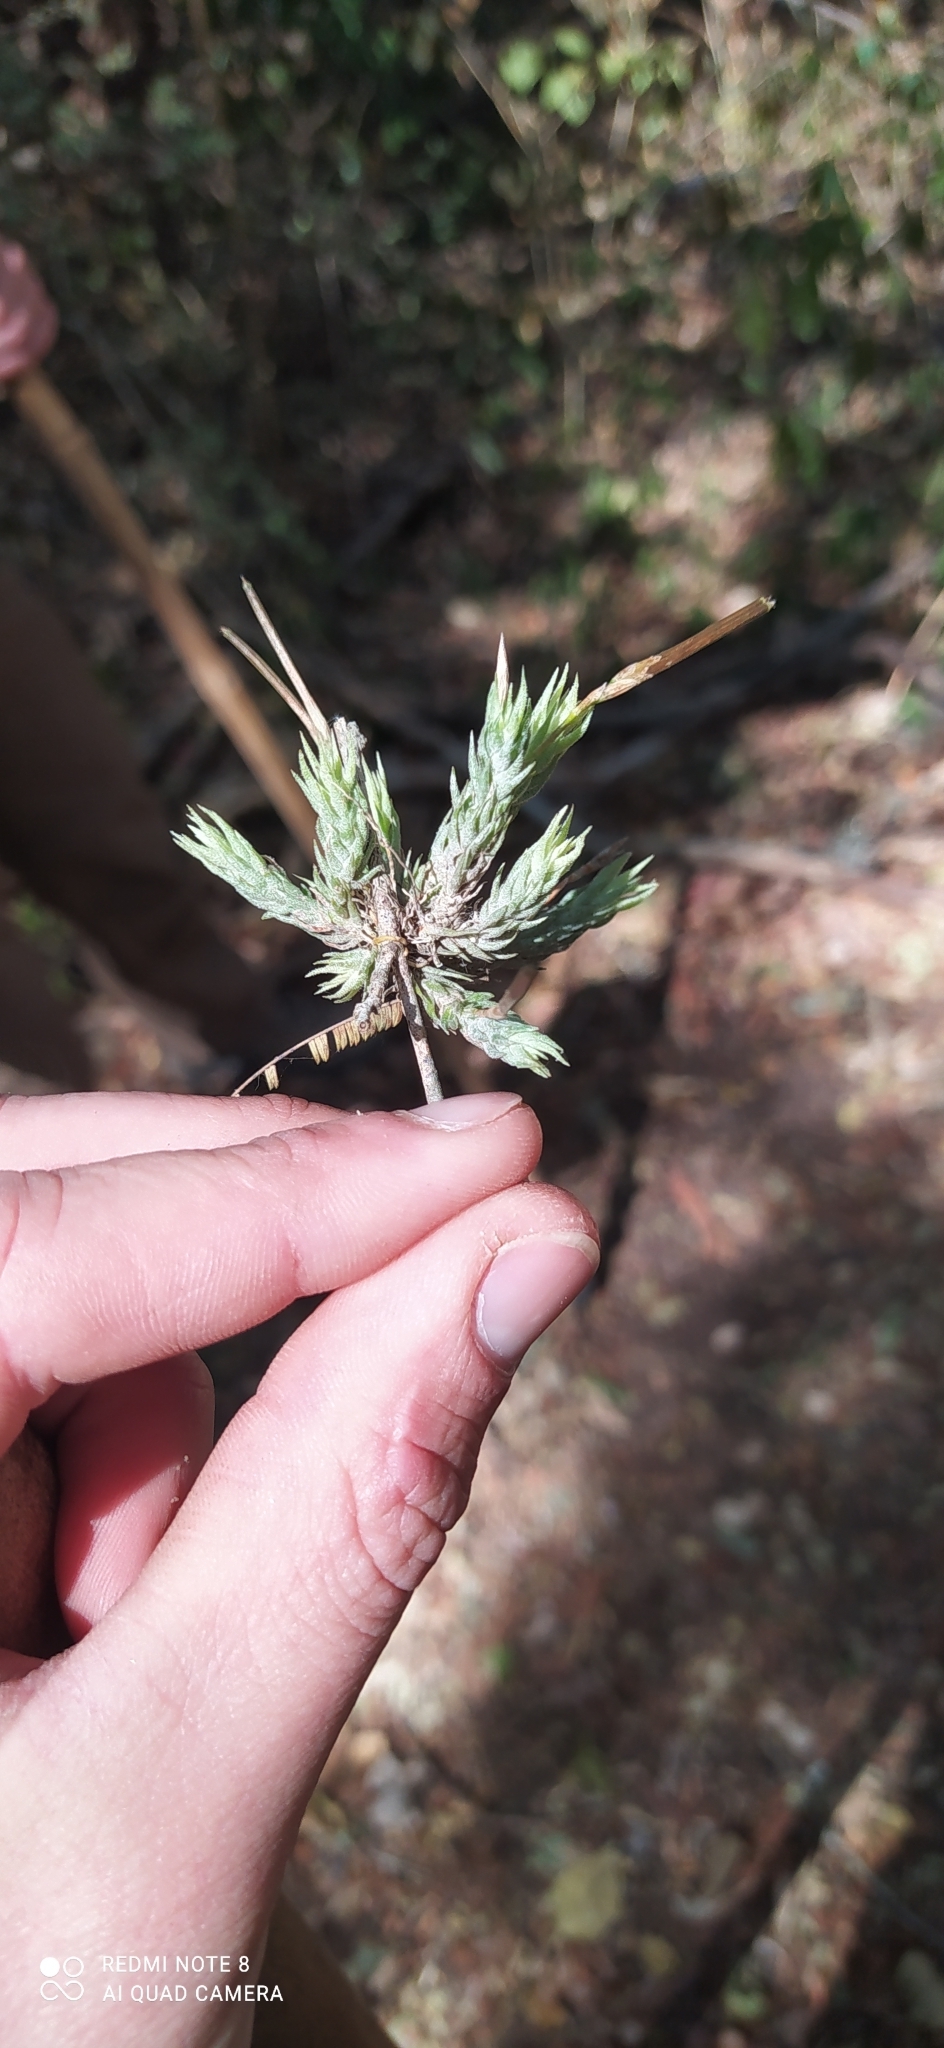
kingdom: Plantae
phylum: Tracheophyta
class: Liliopsida
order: Poales
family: Bromeliaceae
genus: Tillandsia
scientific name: Tillandsia tricholepis
